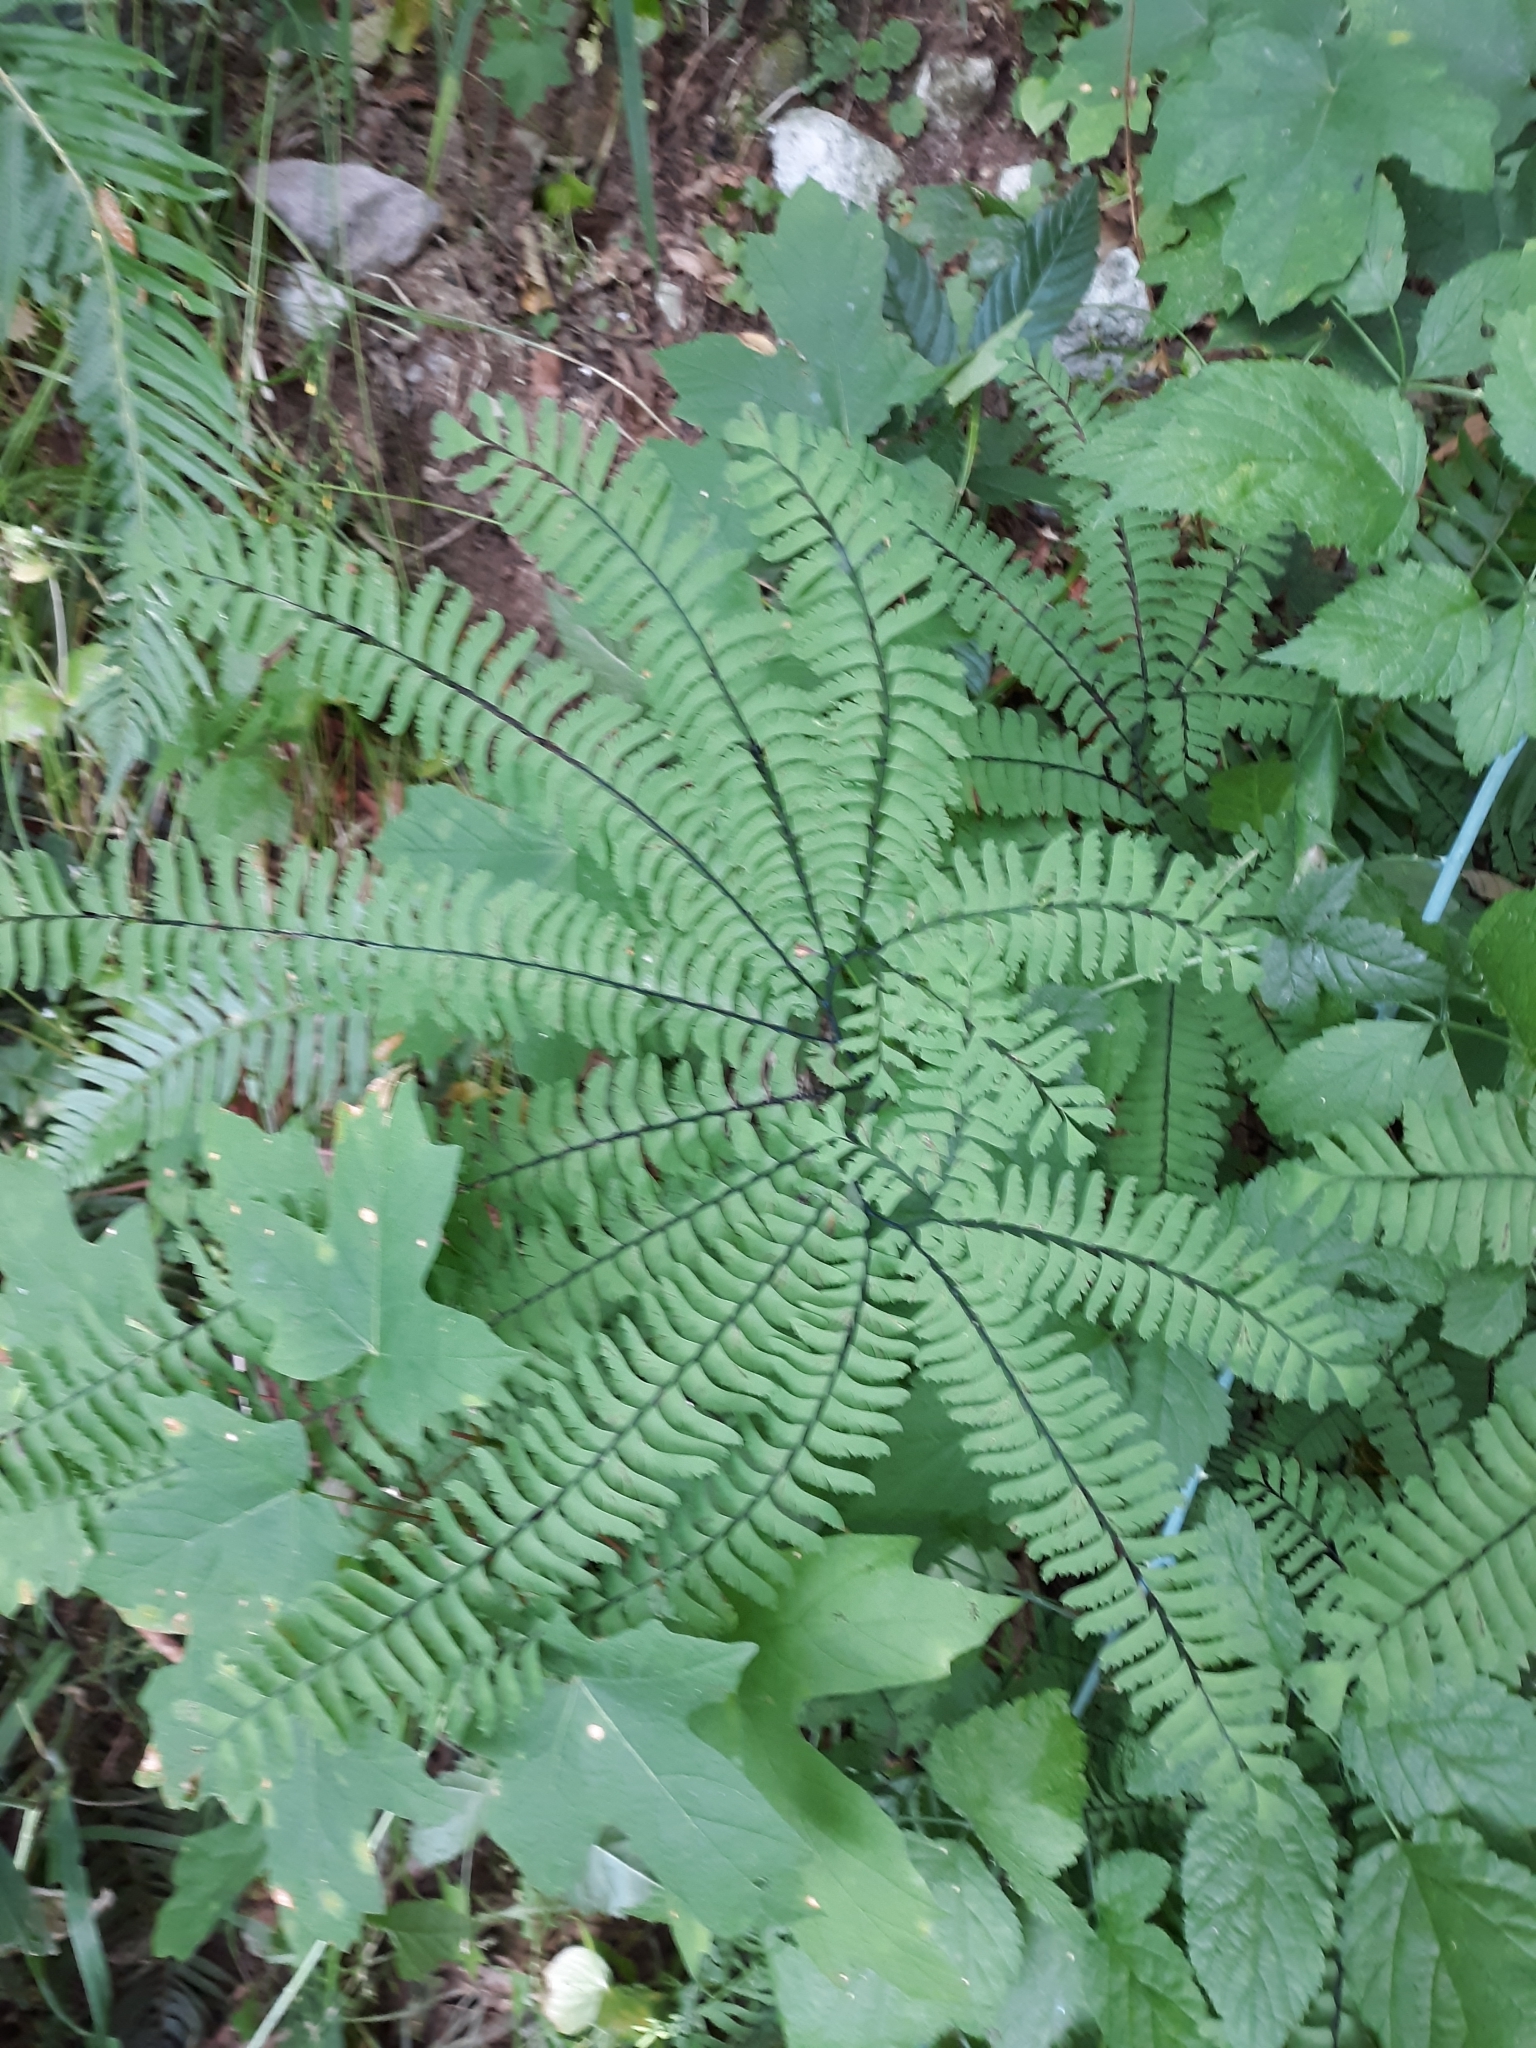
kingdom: Plantae
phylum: Tracheophyta
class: Polypodiopsida
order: Polypodiales
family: Pteridaceae
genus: Adiantum
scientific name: Adiantum aleuticum
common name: Aleutian maidenhair fern
